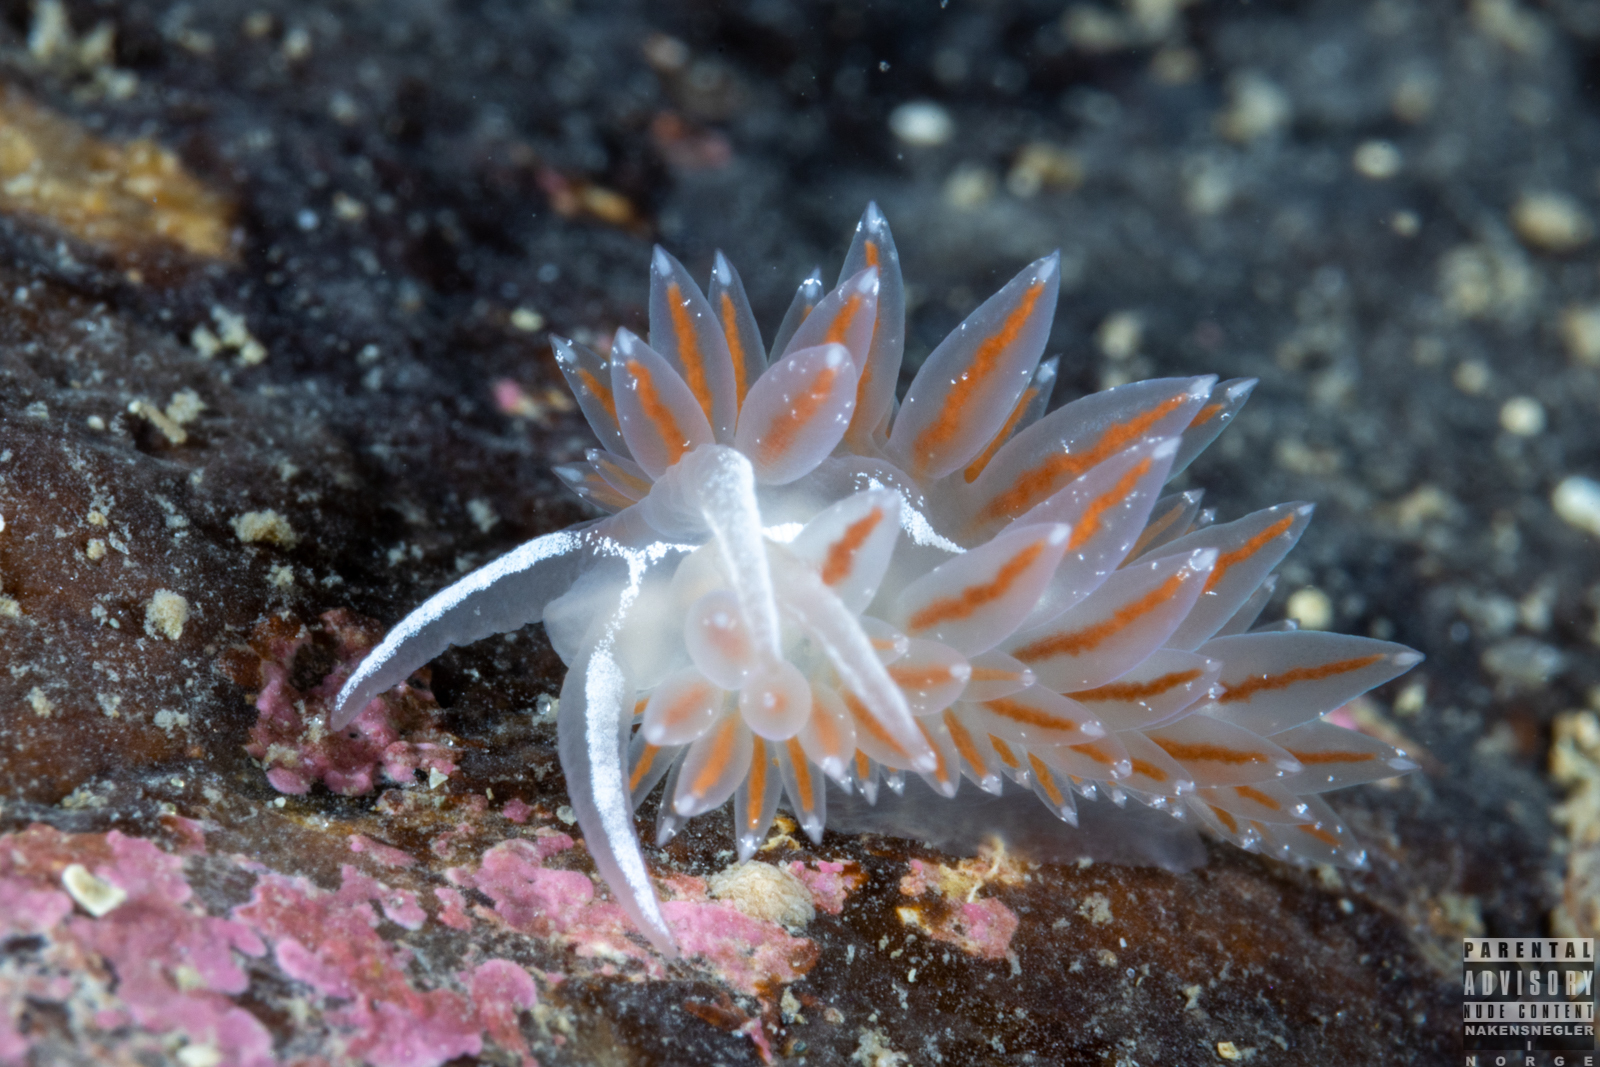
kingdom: Animalia
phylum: Mollusca
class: Gastropoda
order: Nudibranchia
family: Coryphellidae
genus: Coryphella
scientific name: Coryphella monicae
